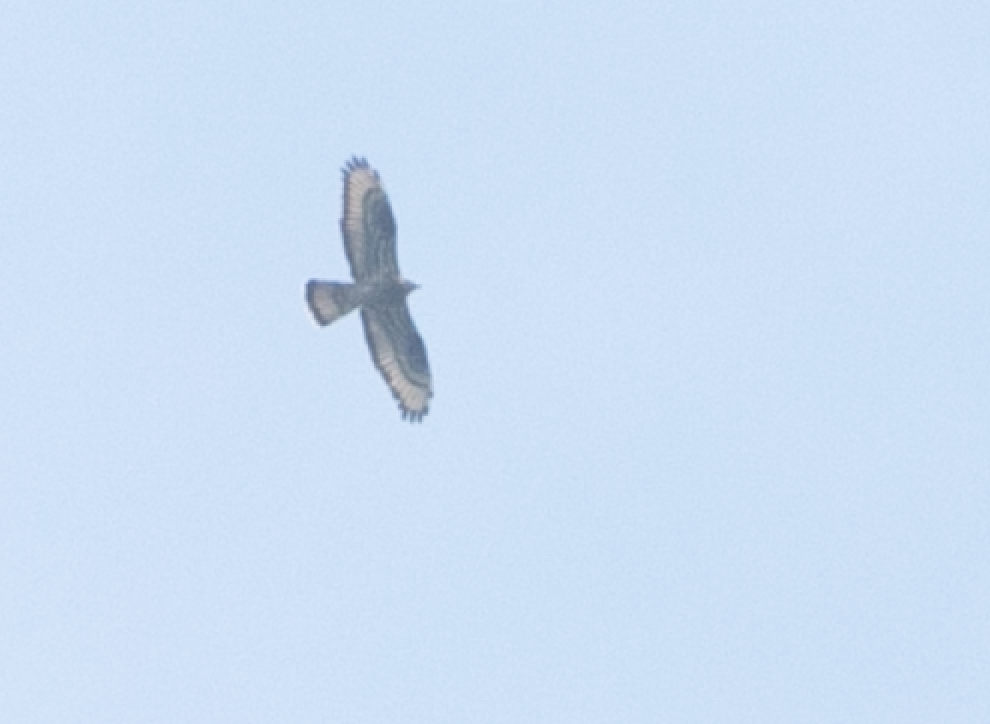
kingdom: Animalia
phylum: Chordata
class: Aves
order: Accipitriformes
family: Accipitridae
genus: Pernis
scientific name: Pernis apivorus
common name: European honey buzzard
